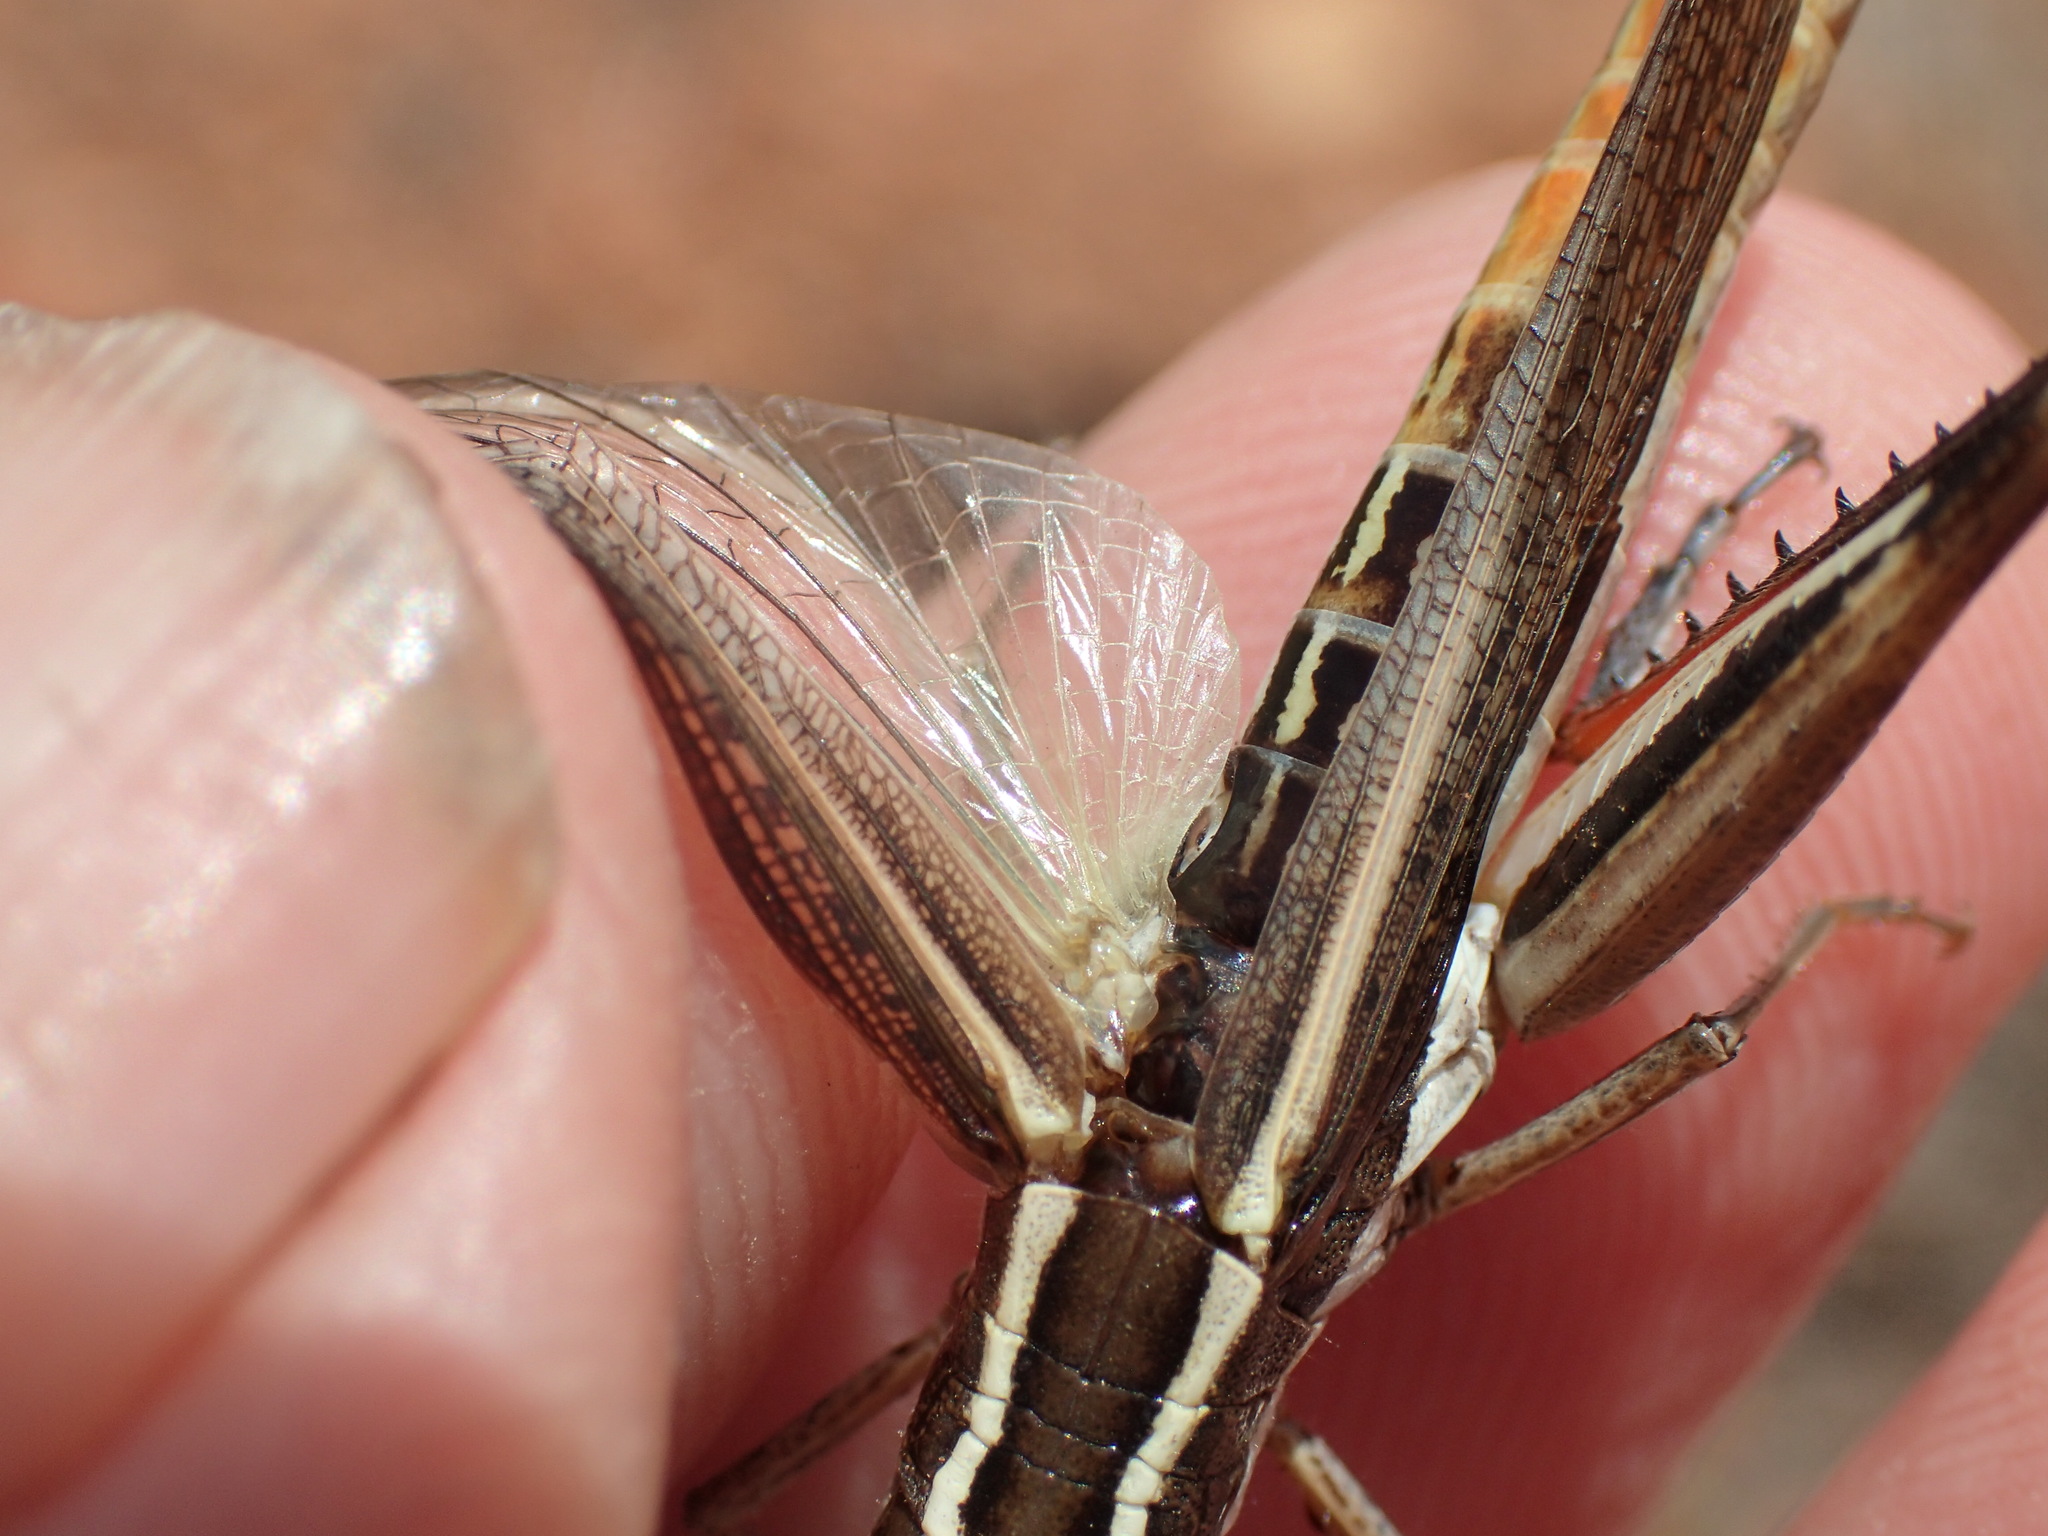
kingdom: Animalia
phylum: Arthropoda
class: Insecta
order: Orthoptera
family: Acrididae
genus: Macrotona
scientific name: Macrotona securiformis
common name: Inland macrotona
